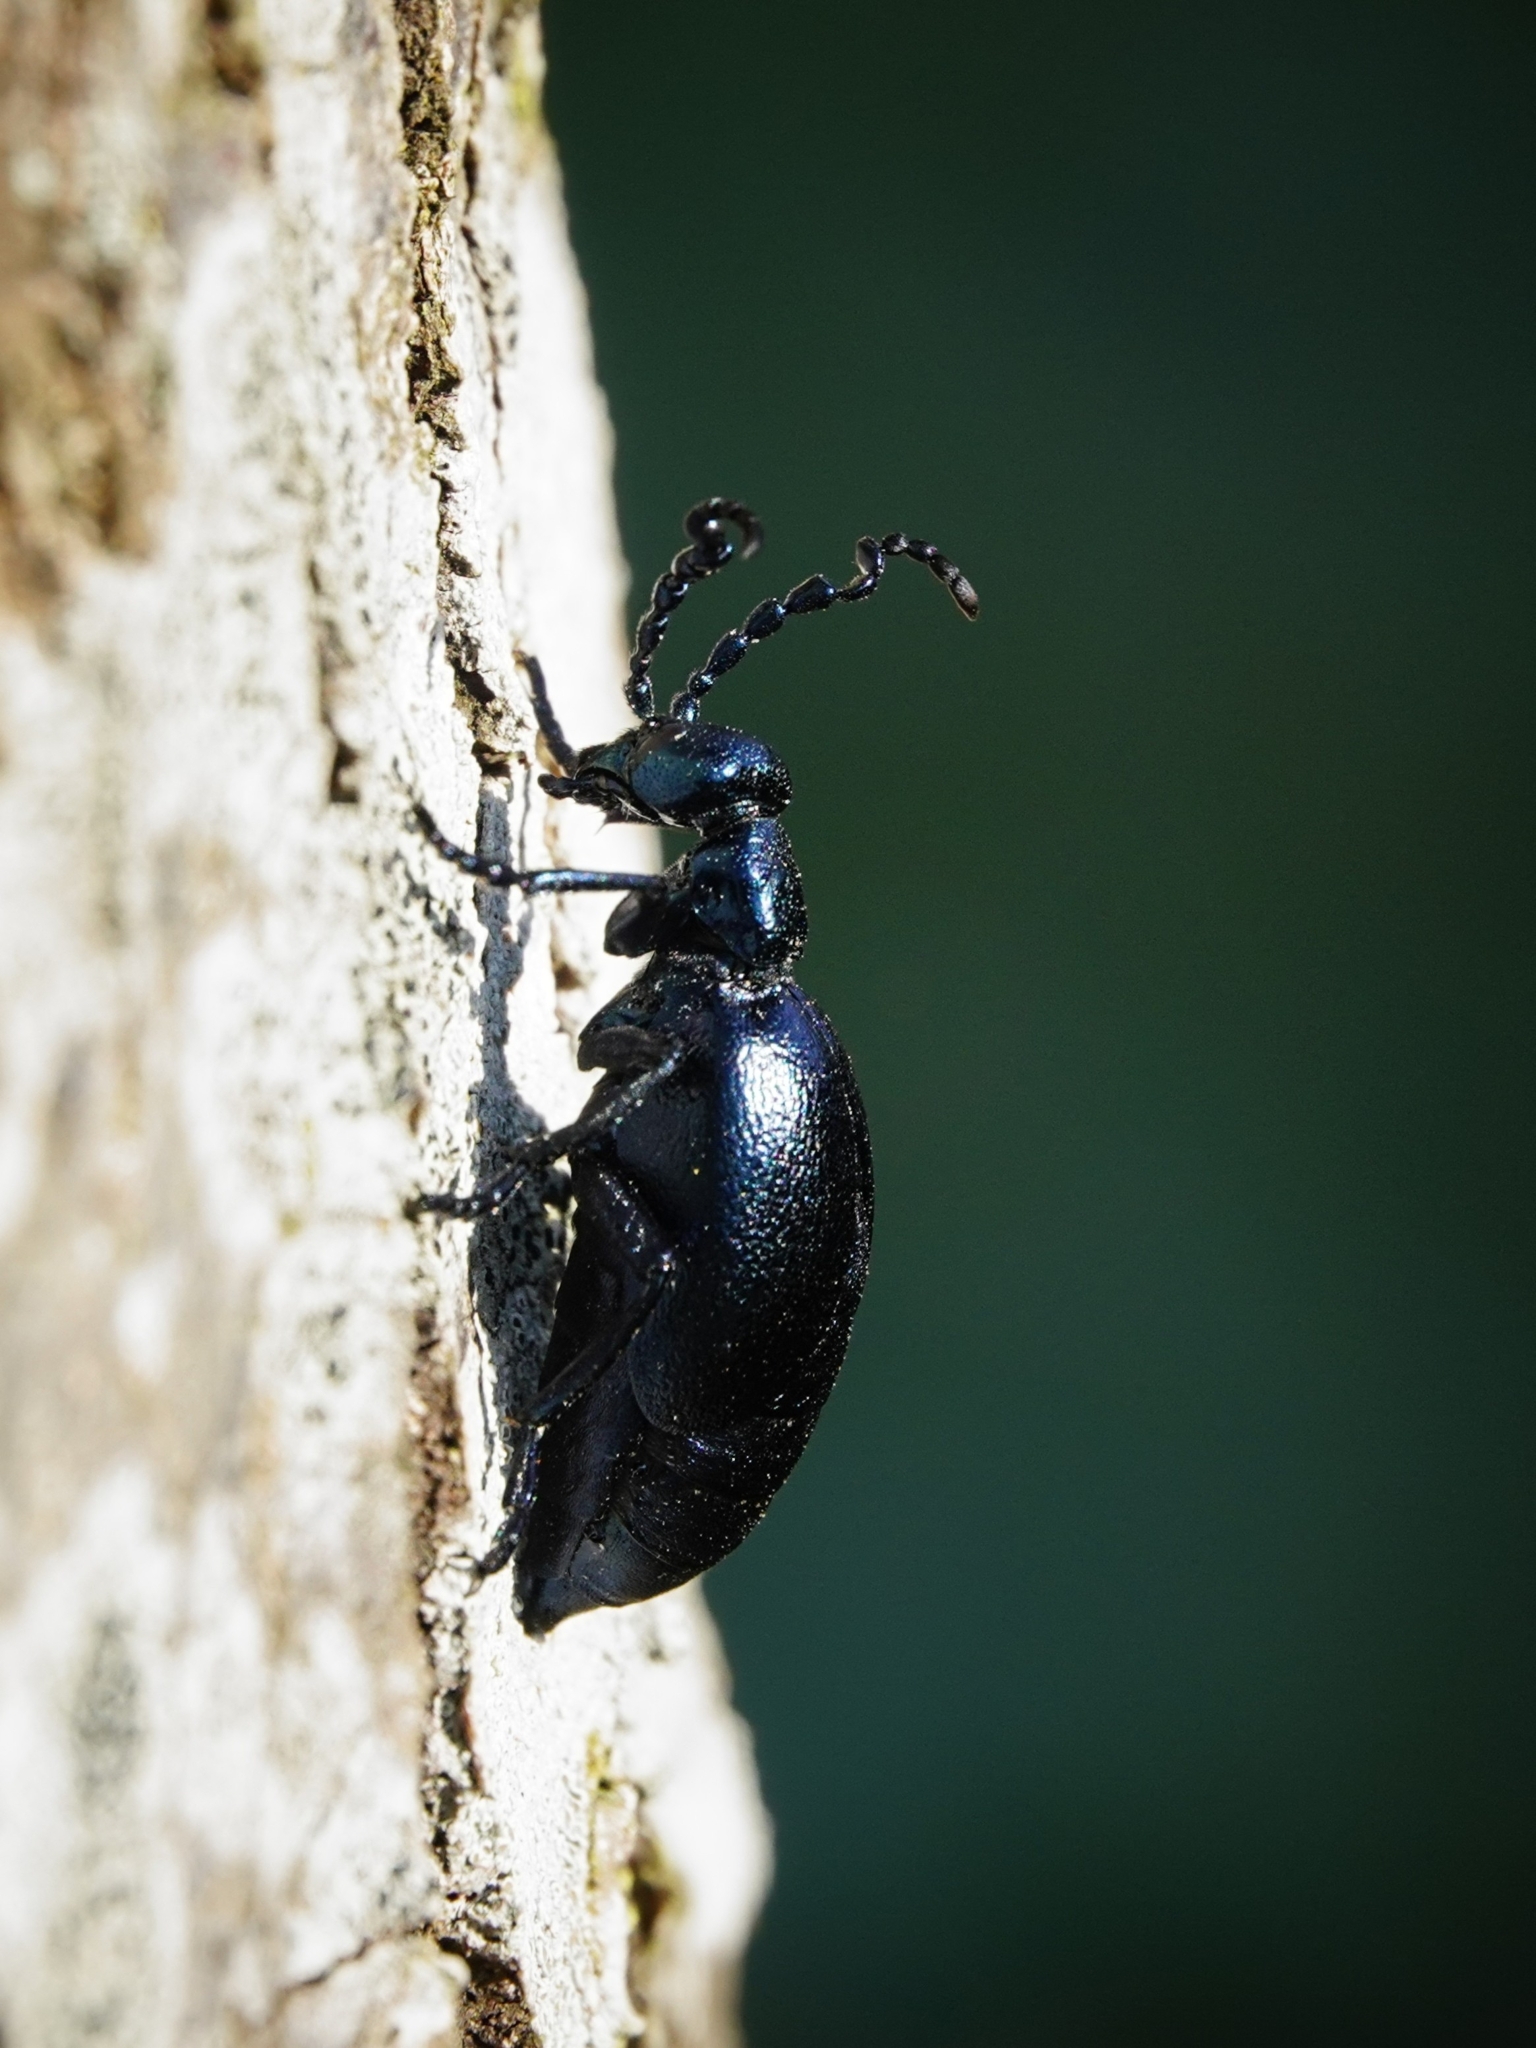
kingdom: Animalia
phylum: Arthropoda
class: Insecta
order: Coleoptera
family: Meloidae
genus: Meloe
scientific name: Meloe violaceus
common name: Violet oil-beetle
